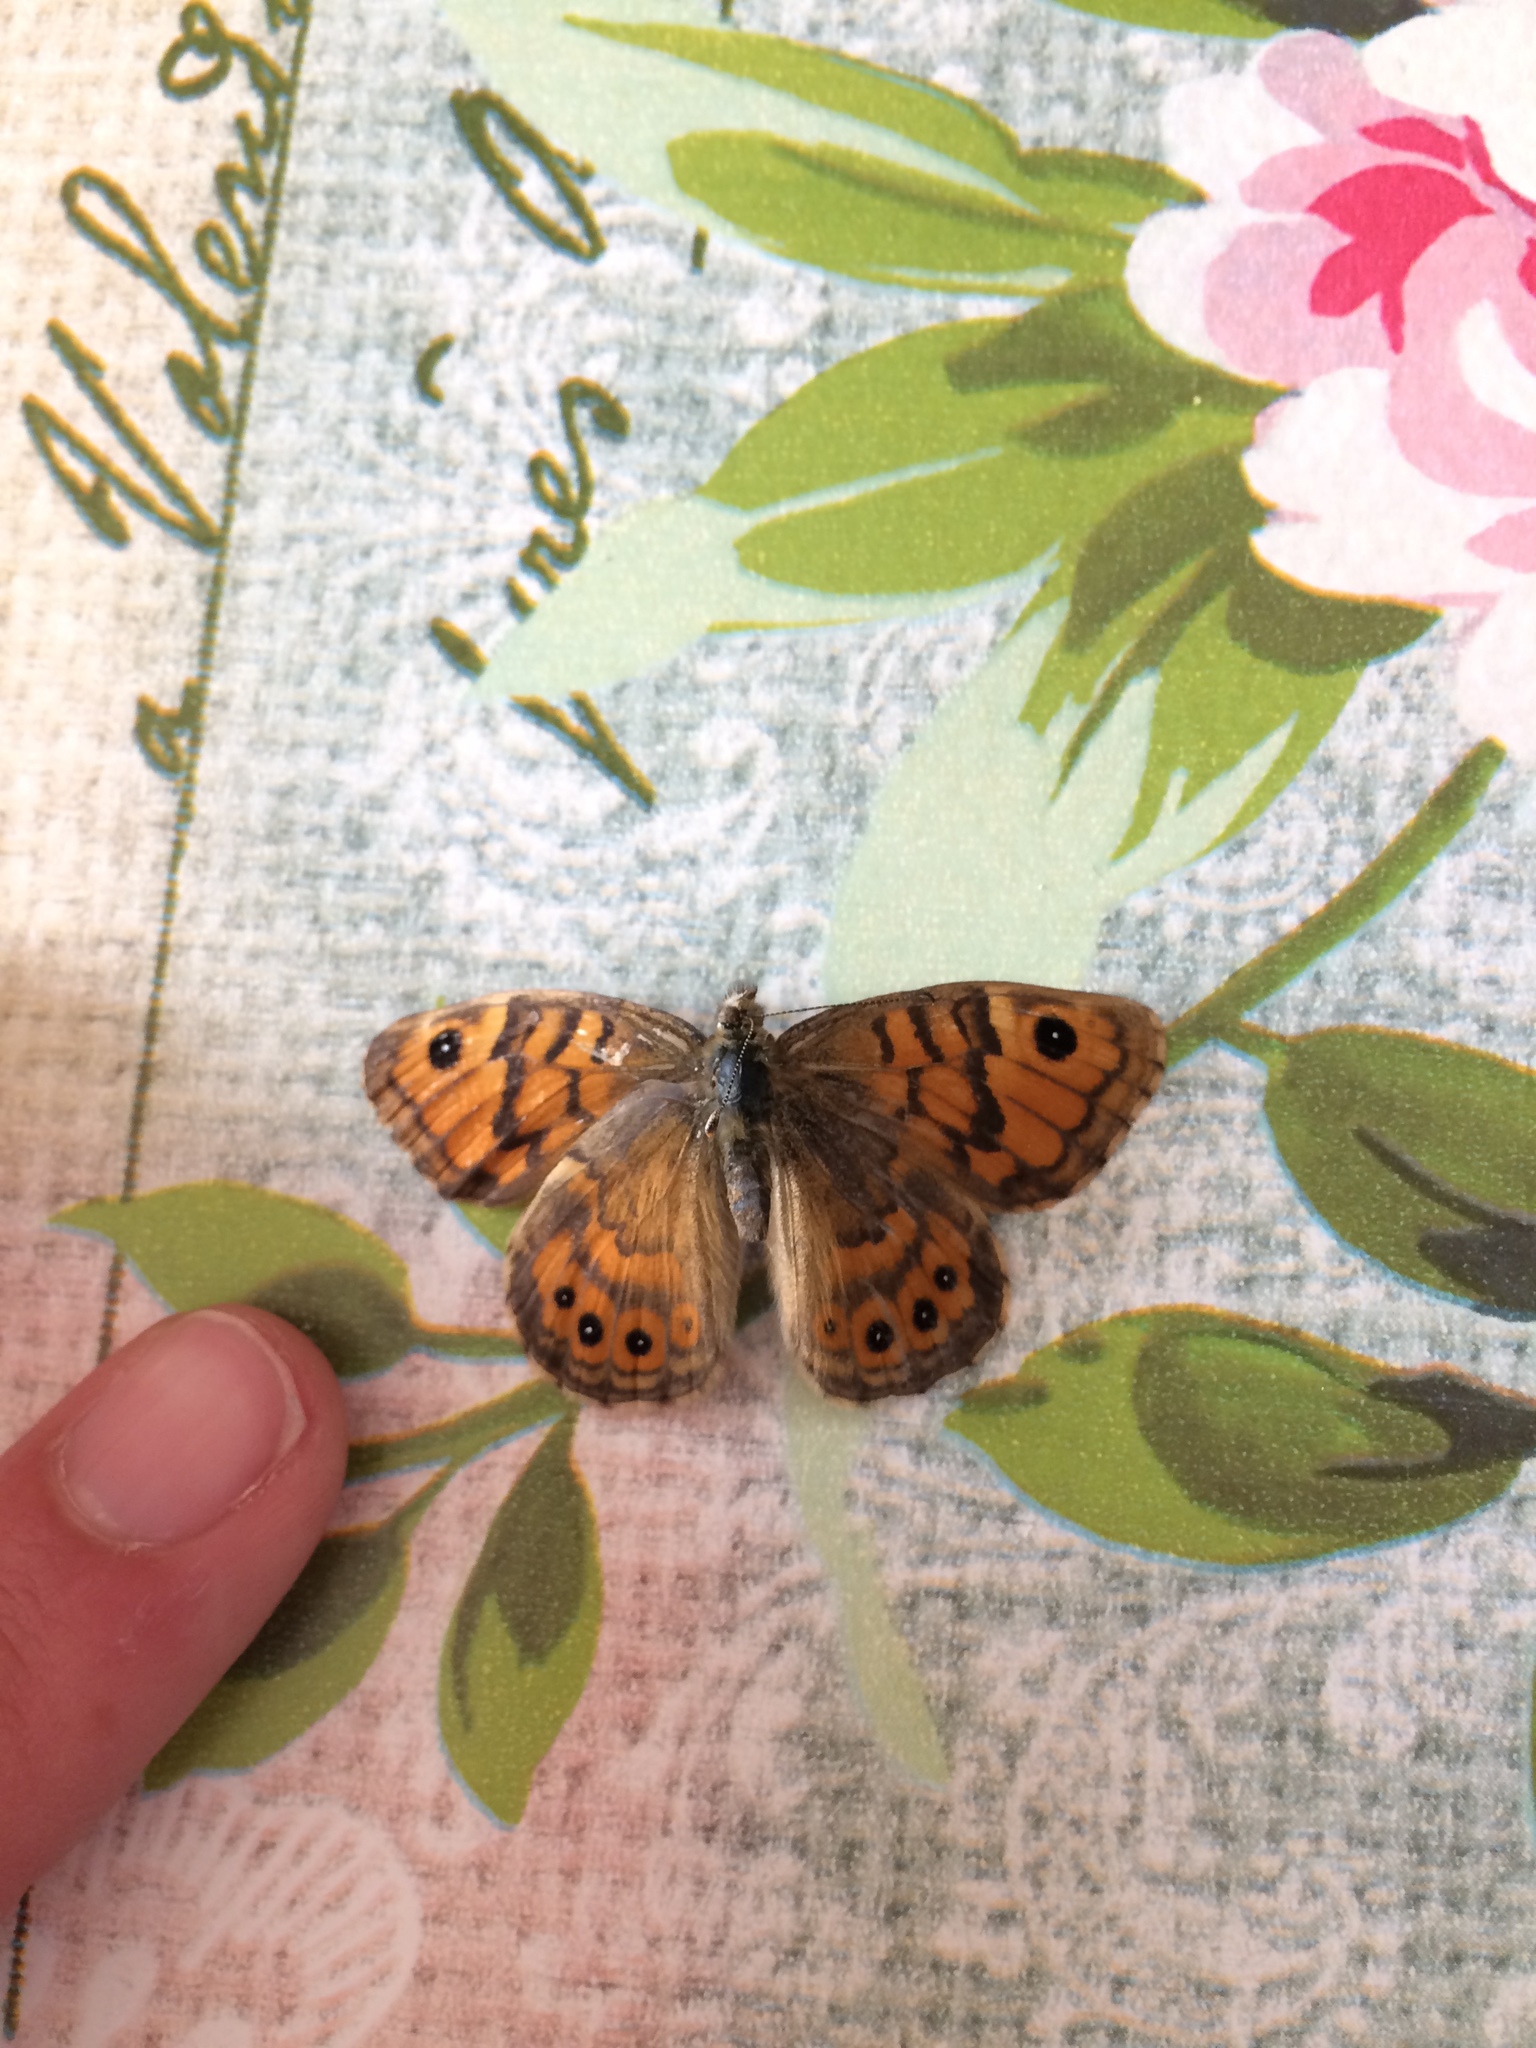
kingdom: Animalia
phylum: Arthropoda
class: Insecta
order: Lepidoptera
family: Nymphalidae
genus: Pararge
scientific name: Pararge Lasiommata megera
